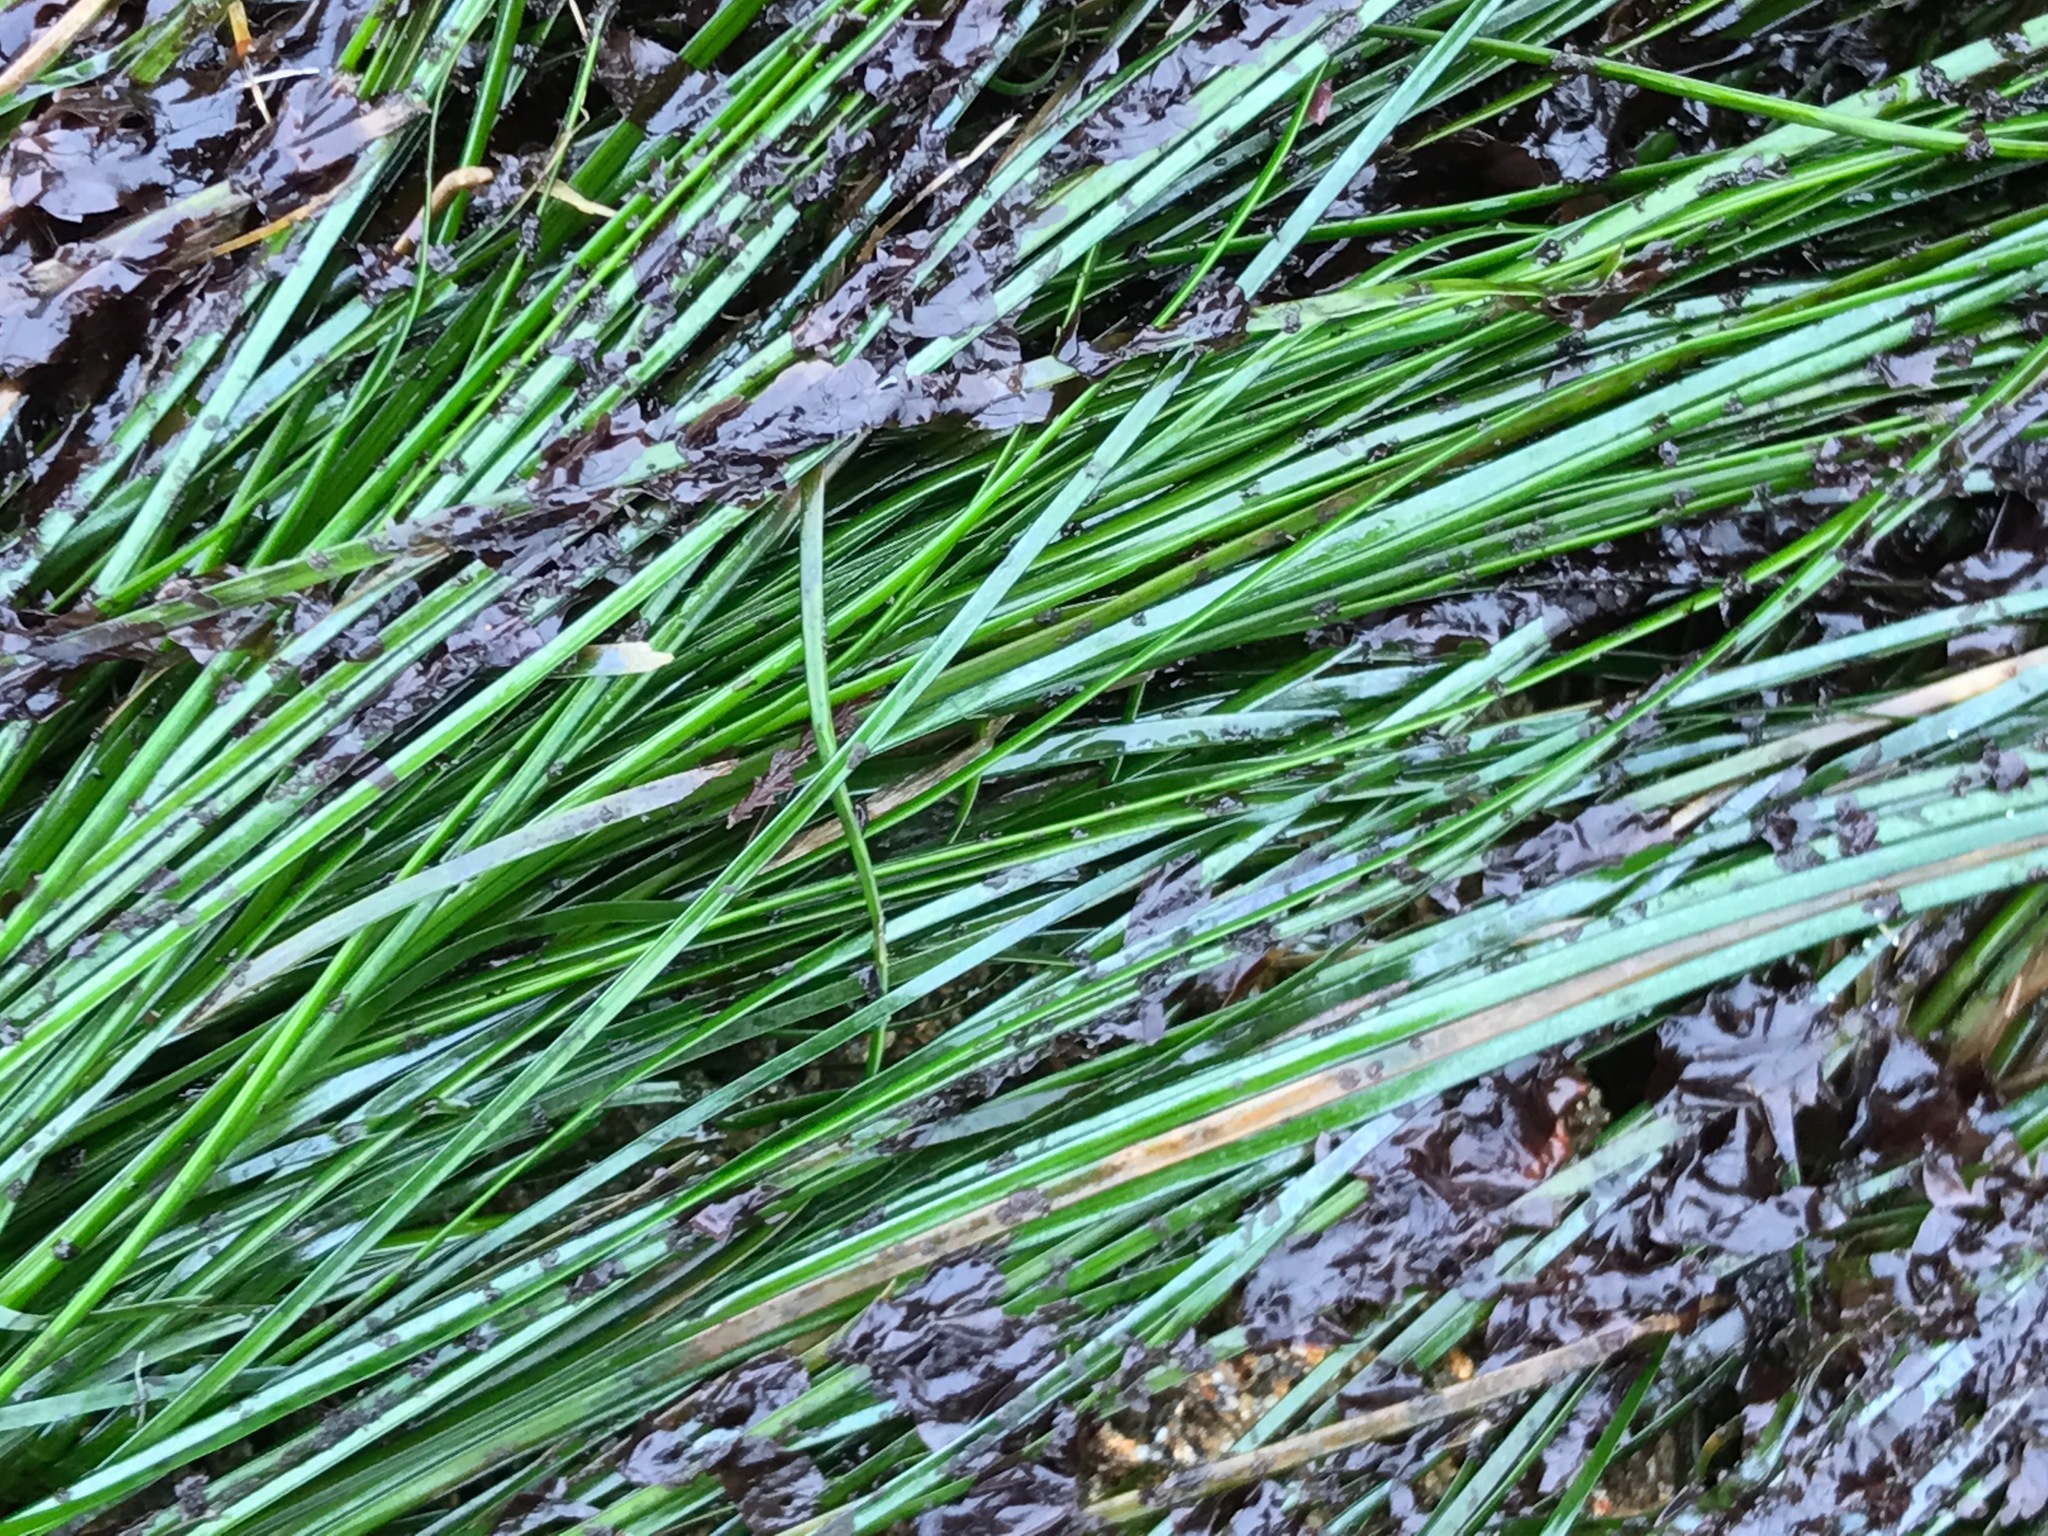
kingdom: Plantae
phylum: Tracheophyta
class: Liliopsida
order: Alismatales
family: Zosteraceae
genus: Phyllospadix
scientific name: Phyllospadix torreyi
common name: Surfgrass
